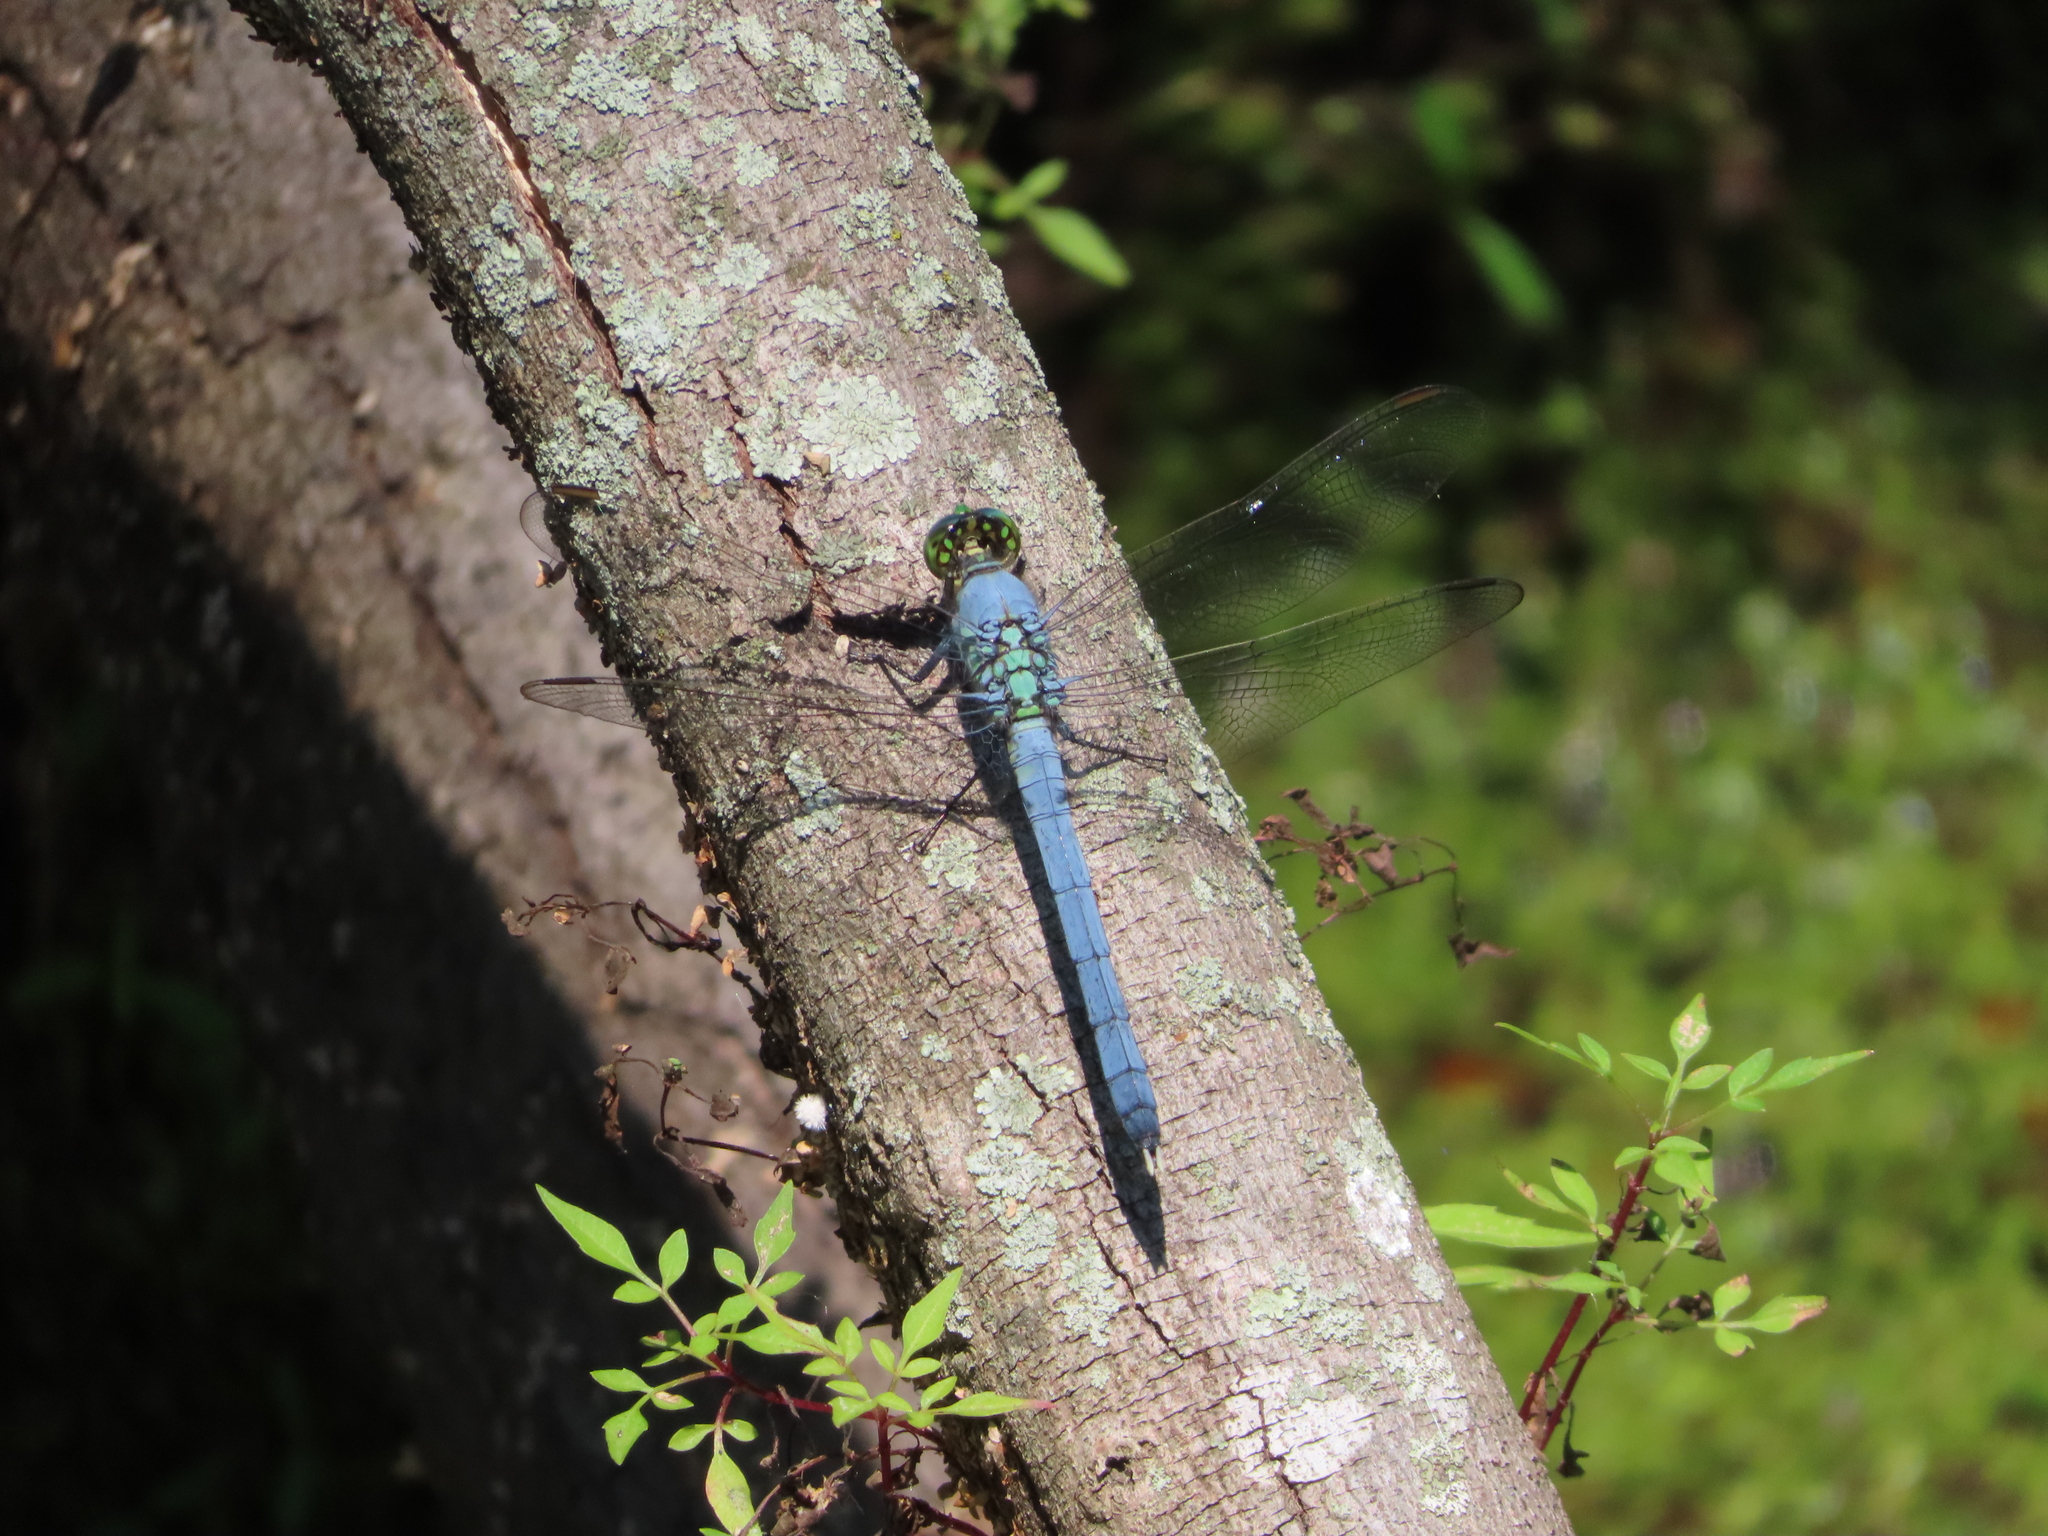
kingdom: Animalia
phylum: Arthropoda
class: Insecta
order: Odonata
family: Libellulidae
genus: Erythemis
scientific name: Erythemis simplicicollis
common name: Eastern pondhawk
